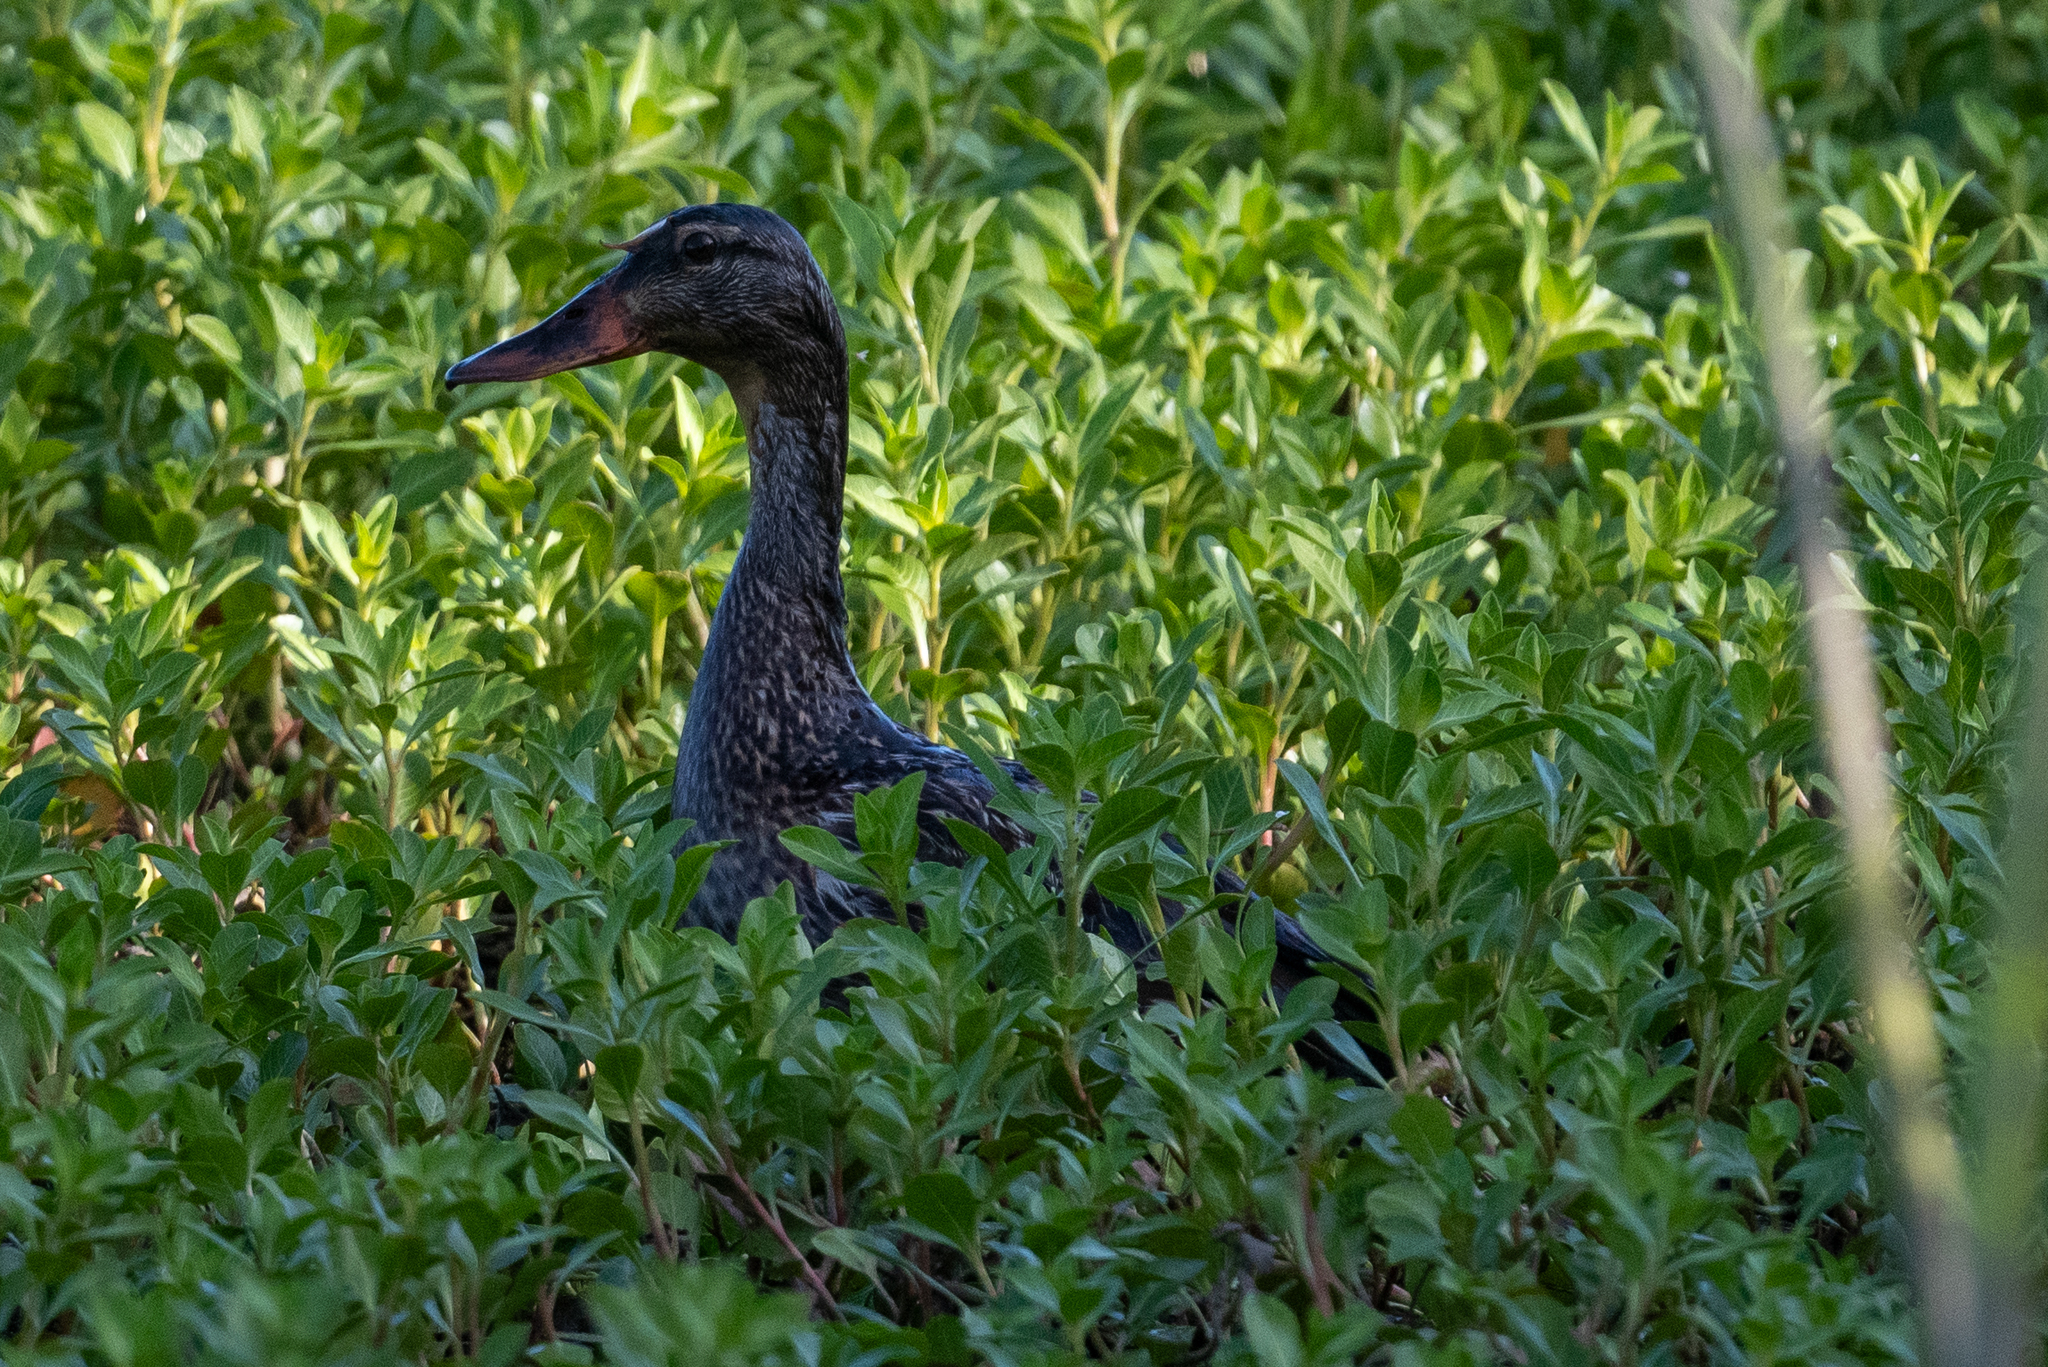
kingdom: Animalia
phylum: Chordata
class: Aves
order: Anseriformes
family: Anatidae
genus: Anas
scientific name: Anas platyrhynchos
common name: Mallard
